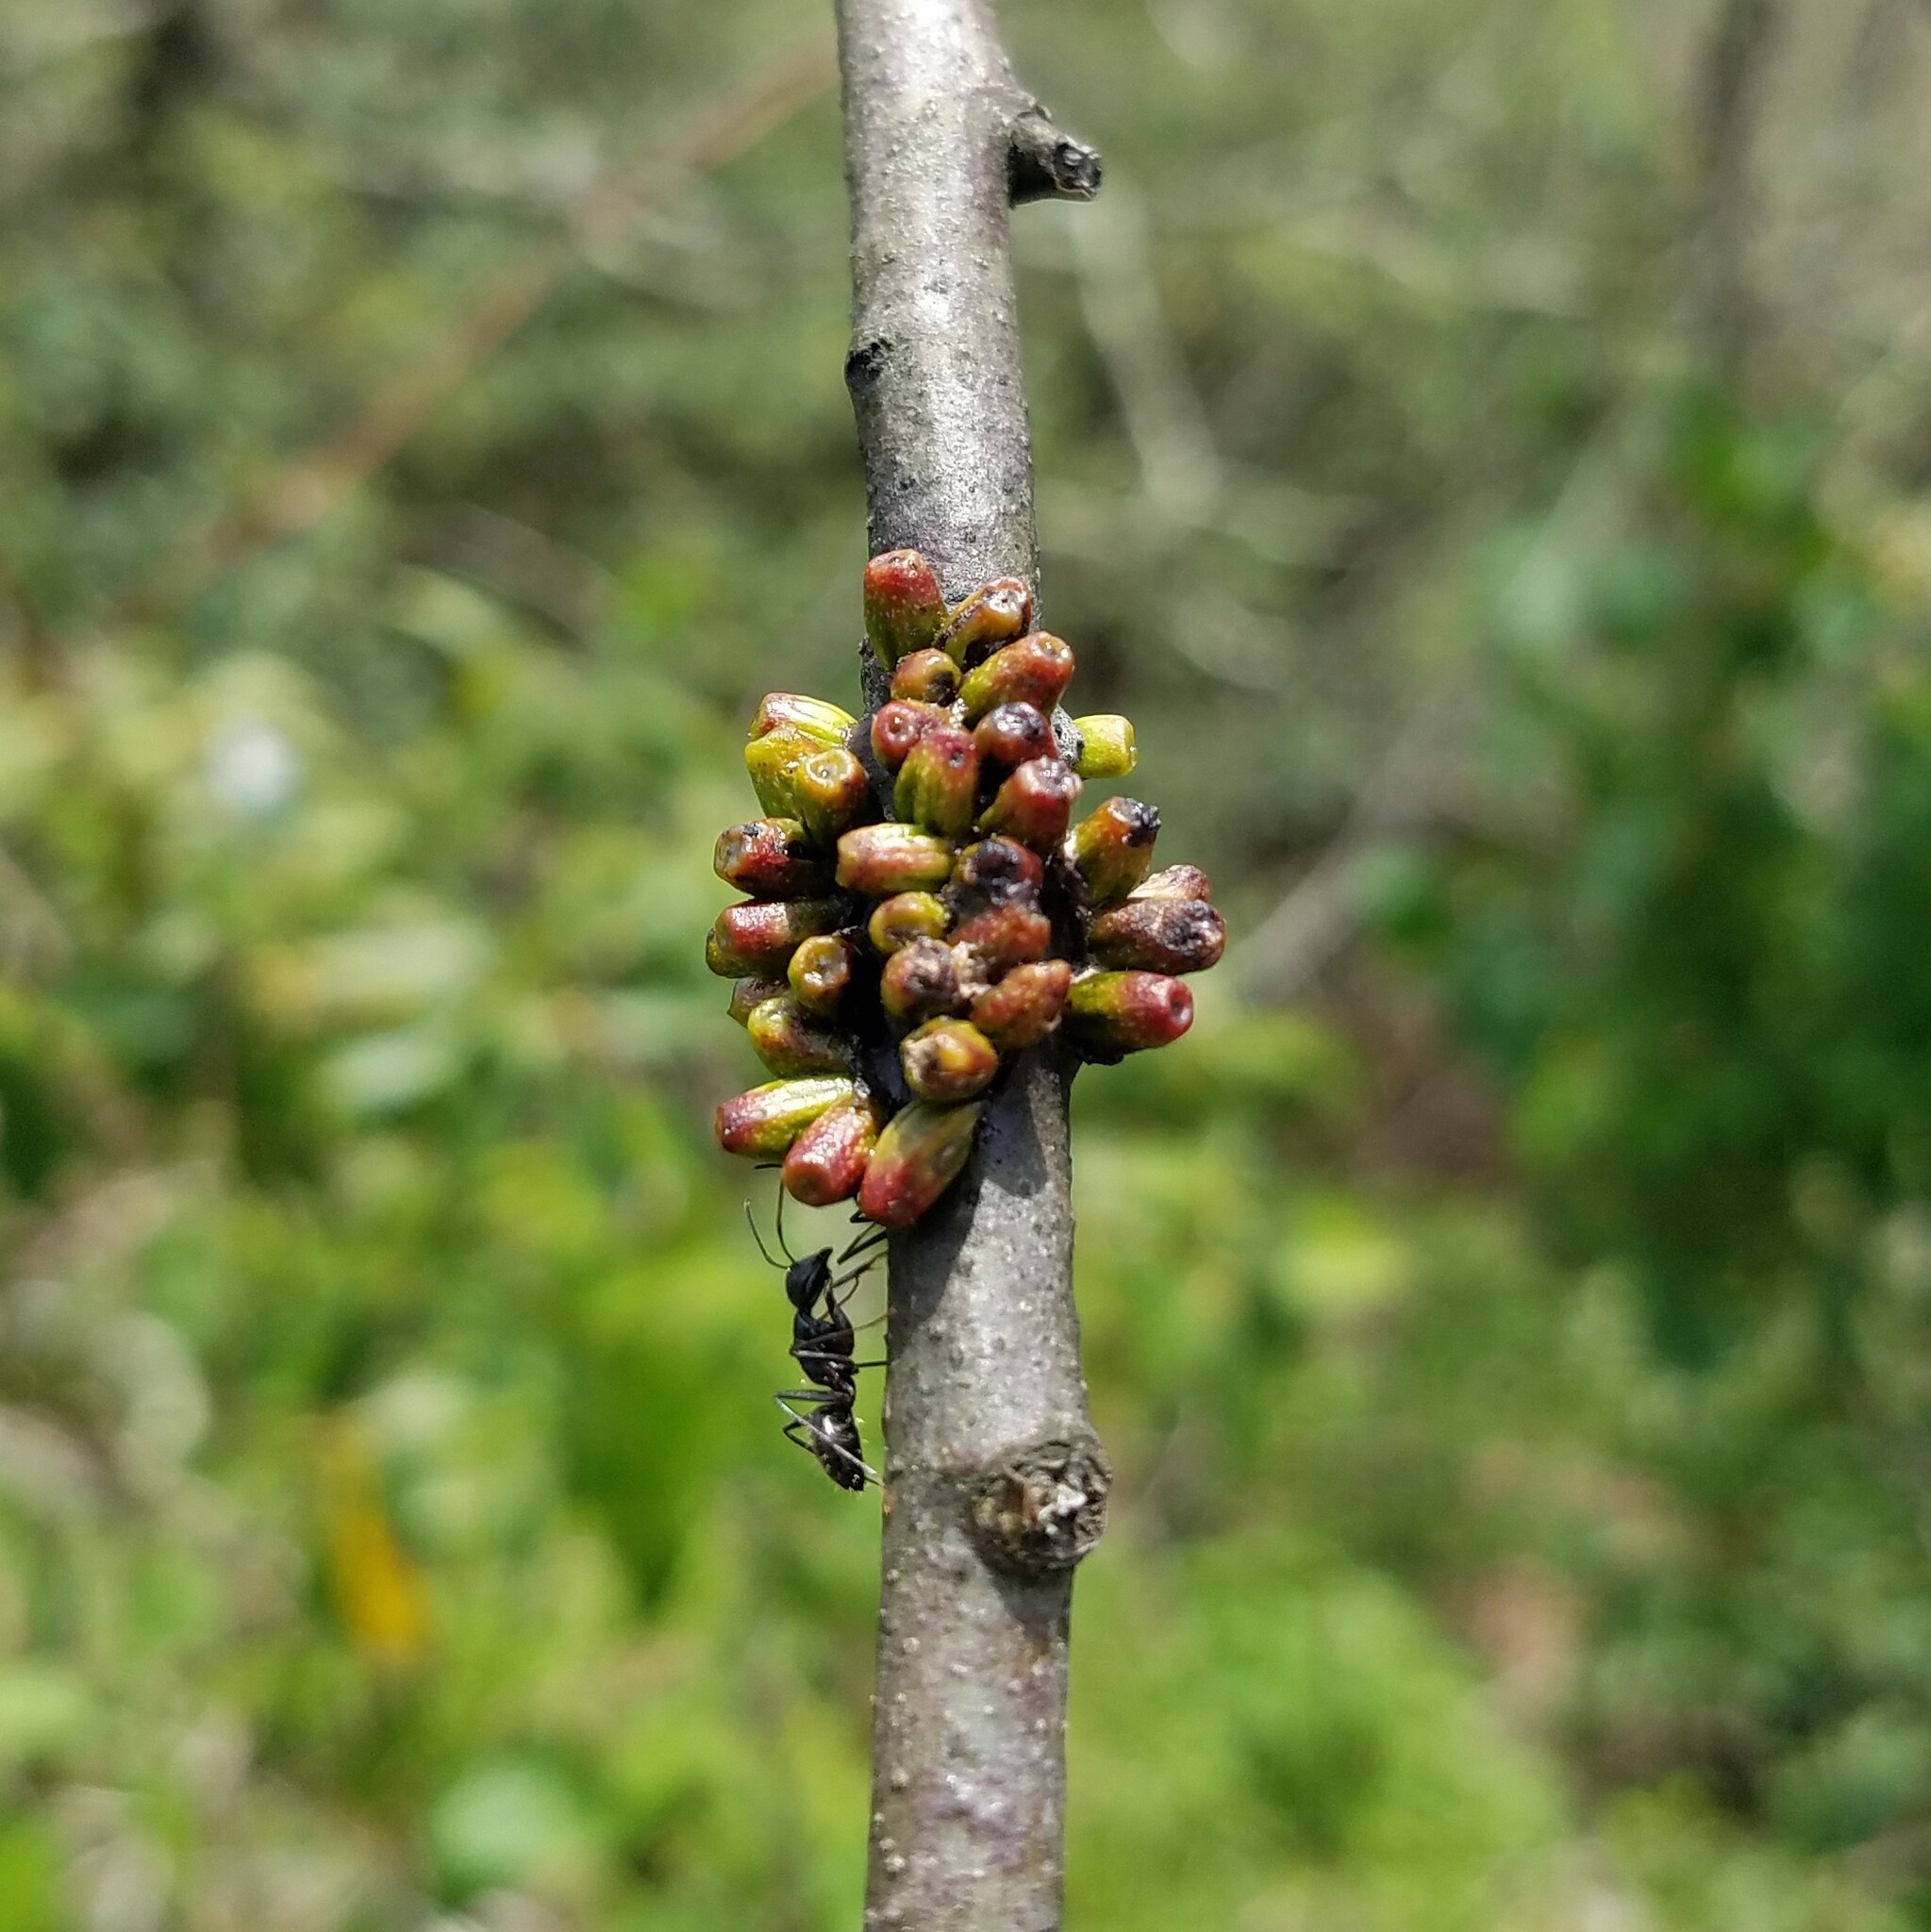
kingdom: Animalia
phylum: Arthropoda
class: Insecta
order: Hymenoptera
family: Cynipidae
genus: Callirhytis
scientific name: Callirhytis
